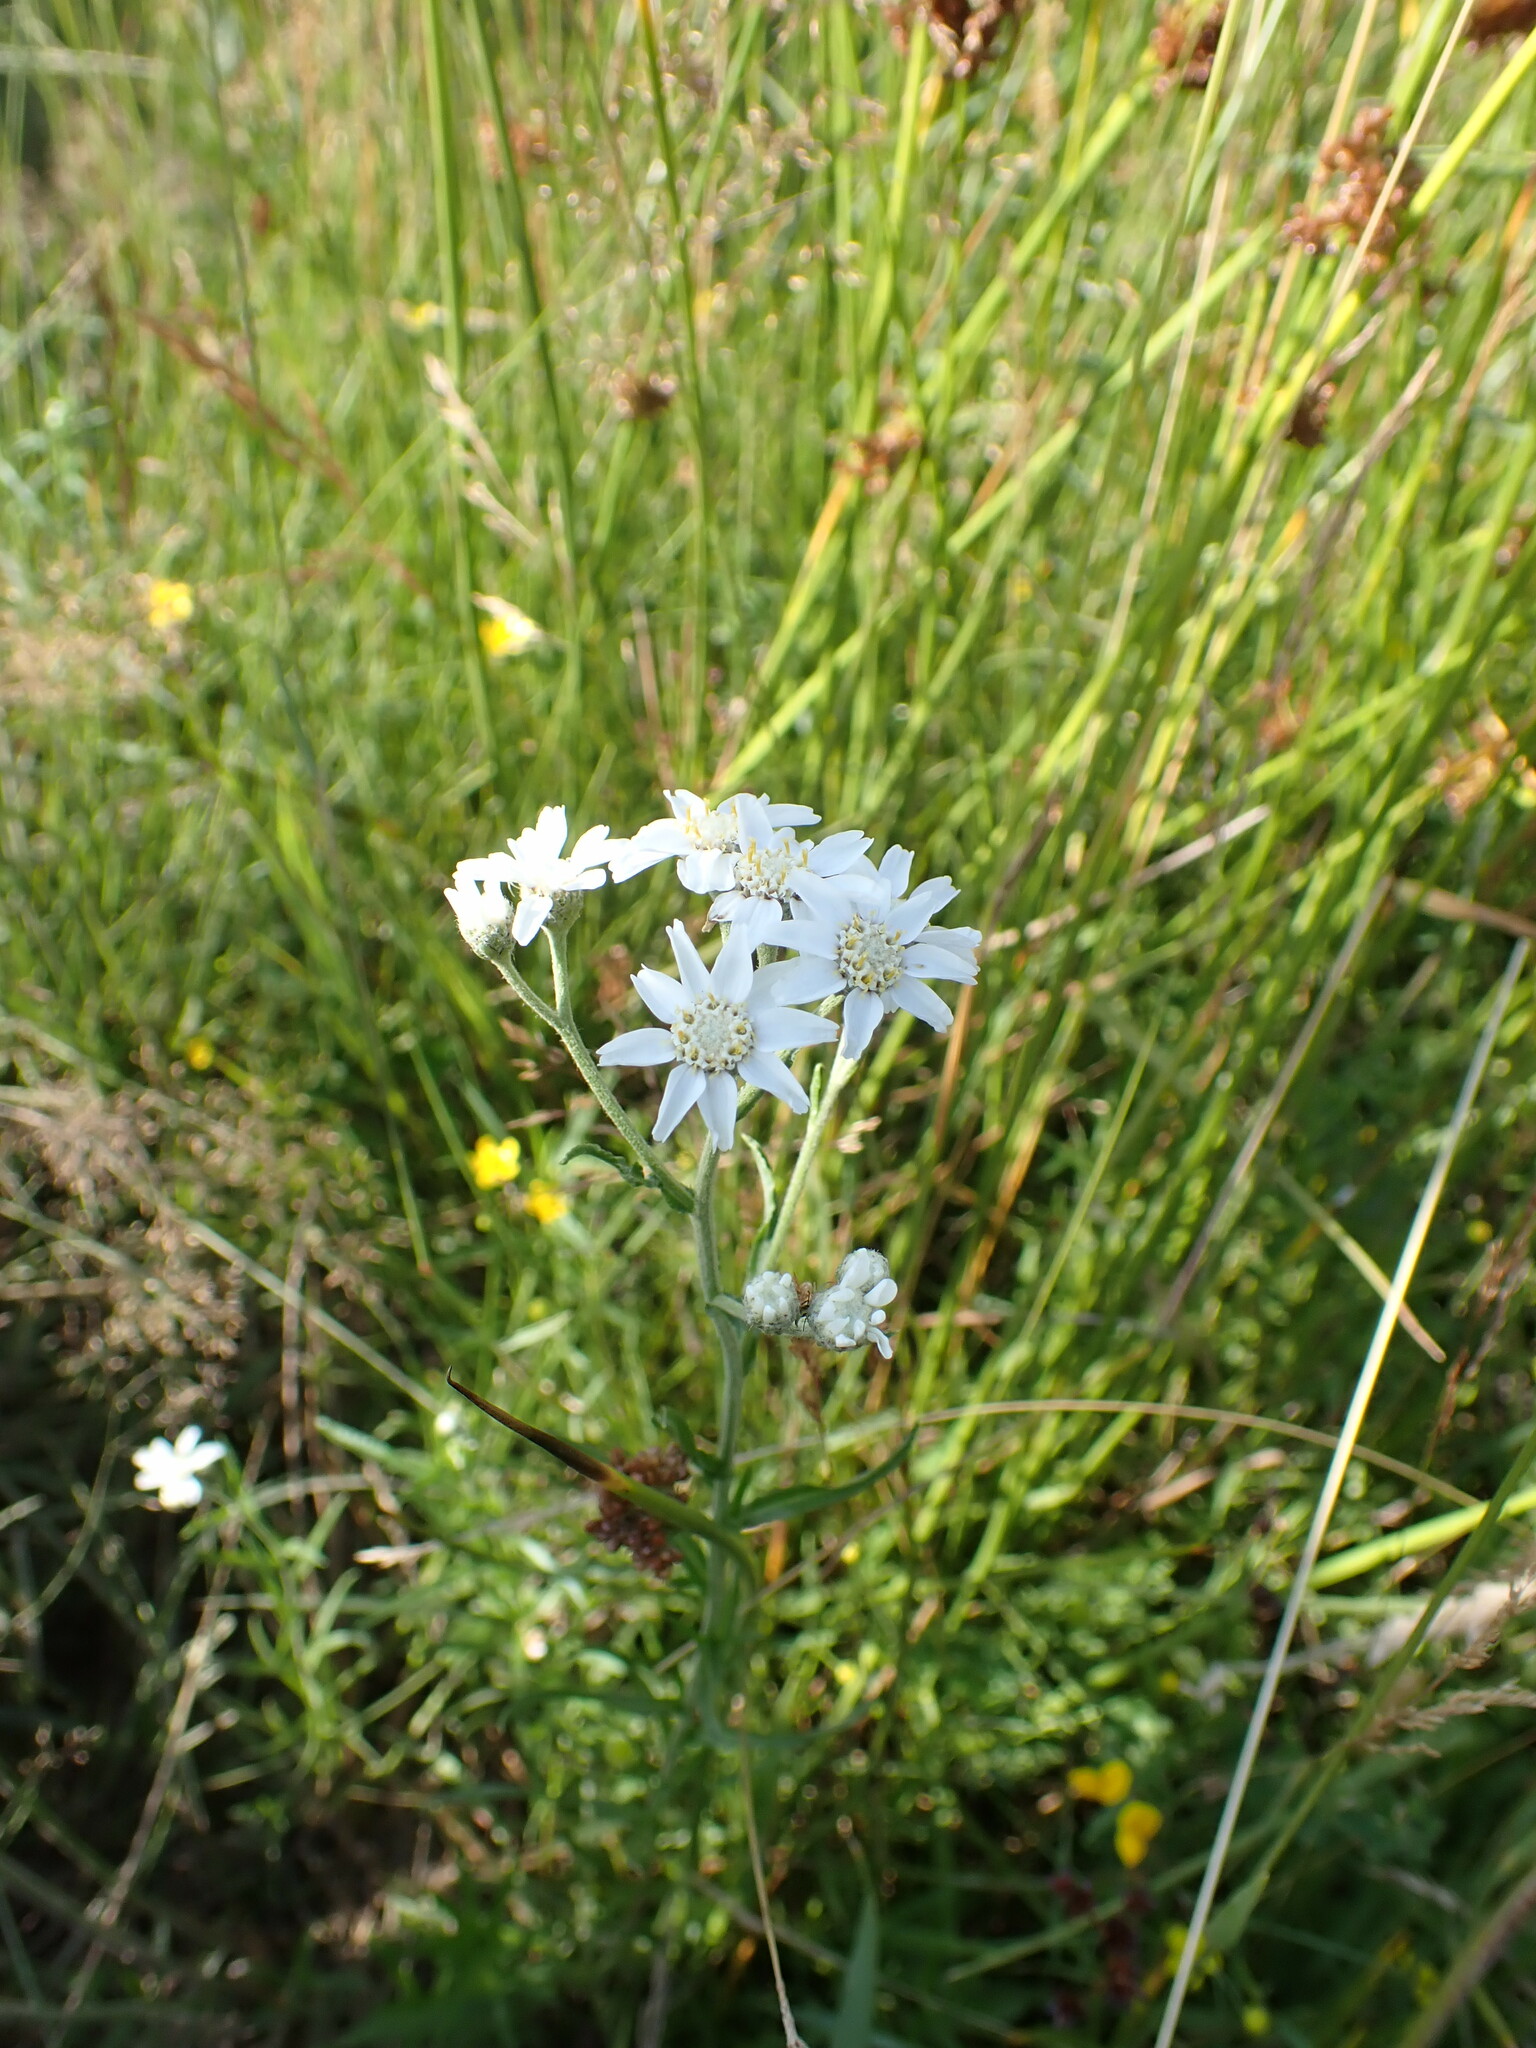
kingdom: Plantae
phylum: Tracheophyta
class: Magnoliopsida
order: Asterales
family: Asteraceae
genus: Achillea
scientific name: Achillea ptarmica
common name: Sneezeweed
